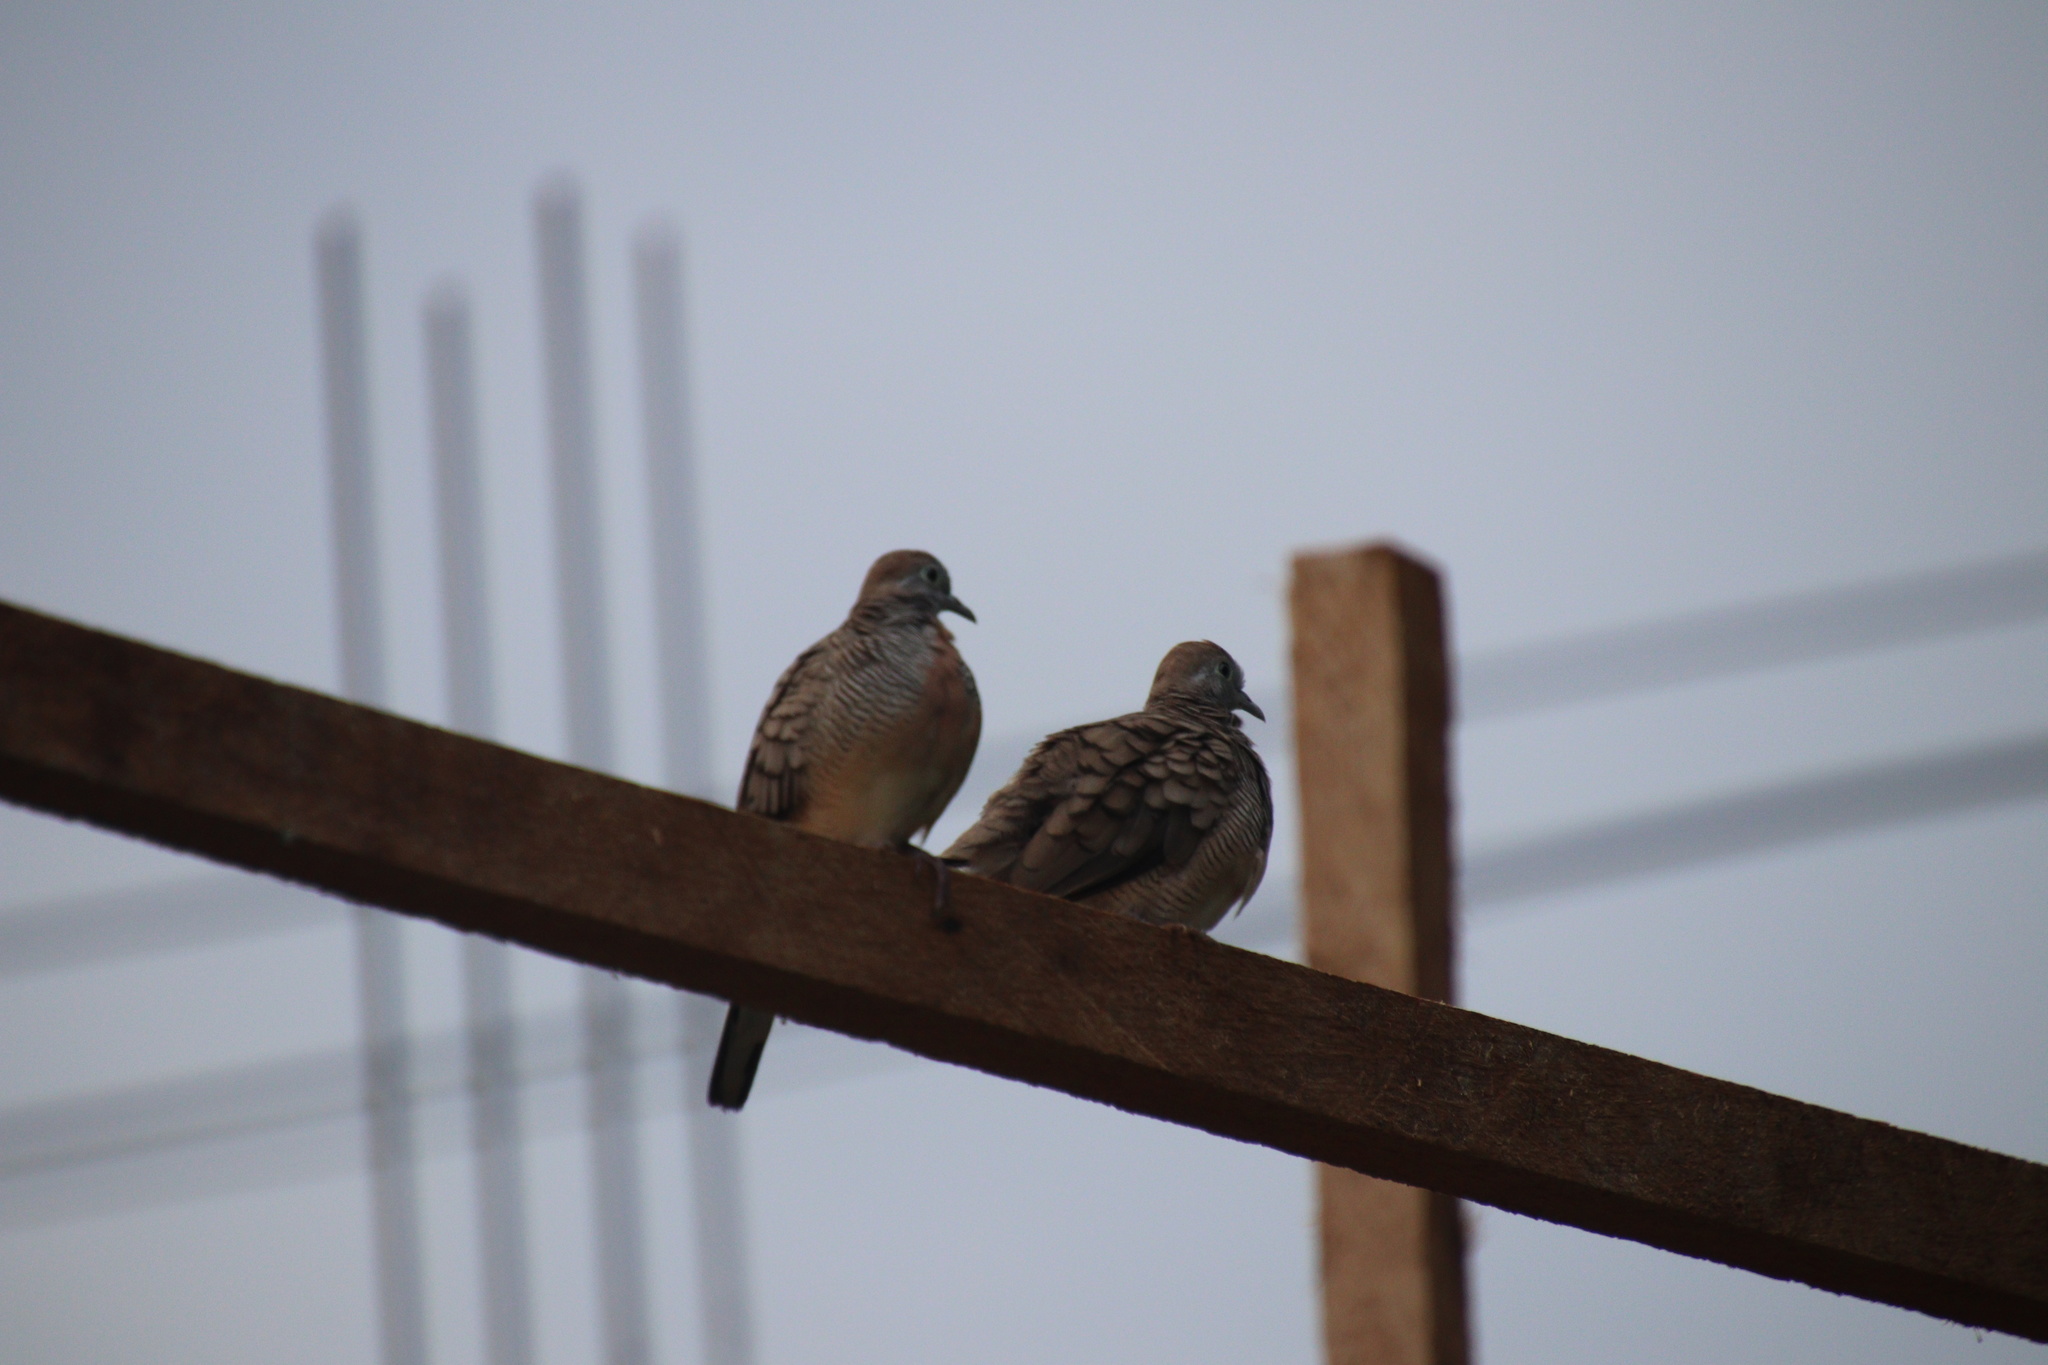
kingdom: Animalia
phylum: Chordata
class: Aves
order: Columbiformes
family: Columbidae
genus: Geopelia
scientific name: Geopelia striata
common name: Zebra dove
